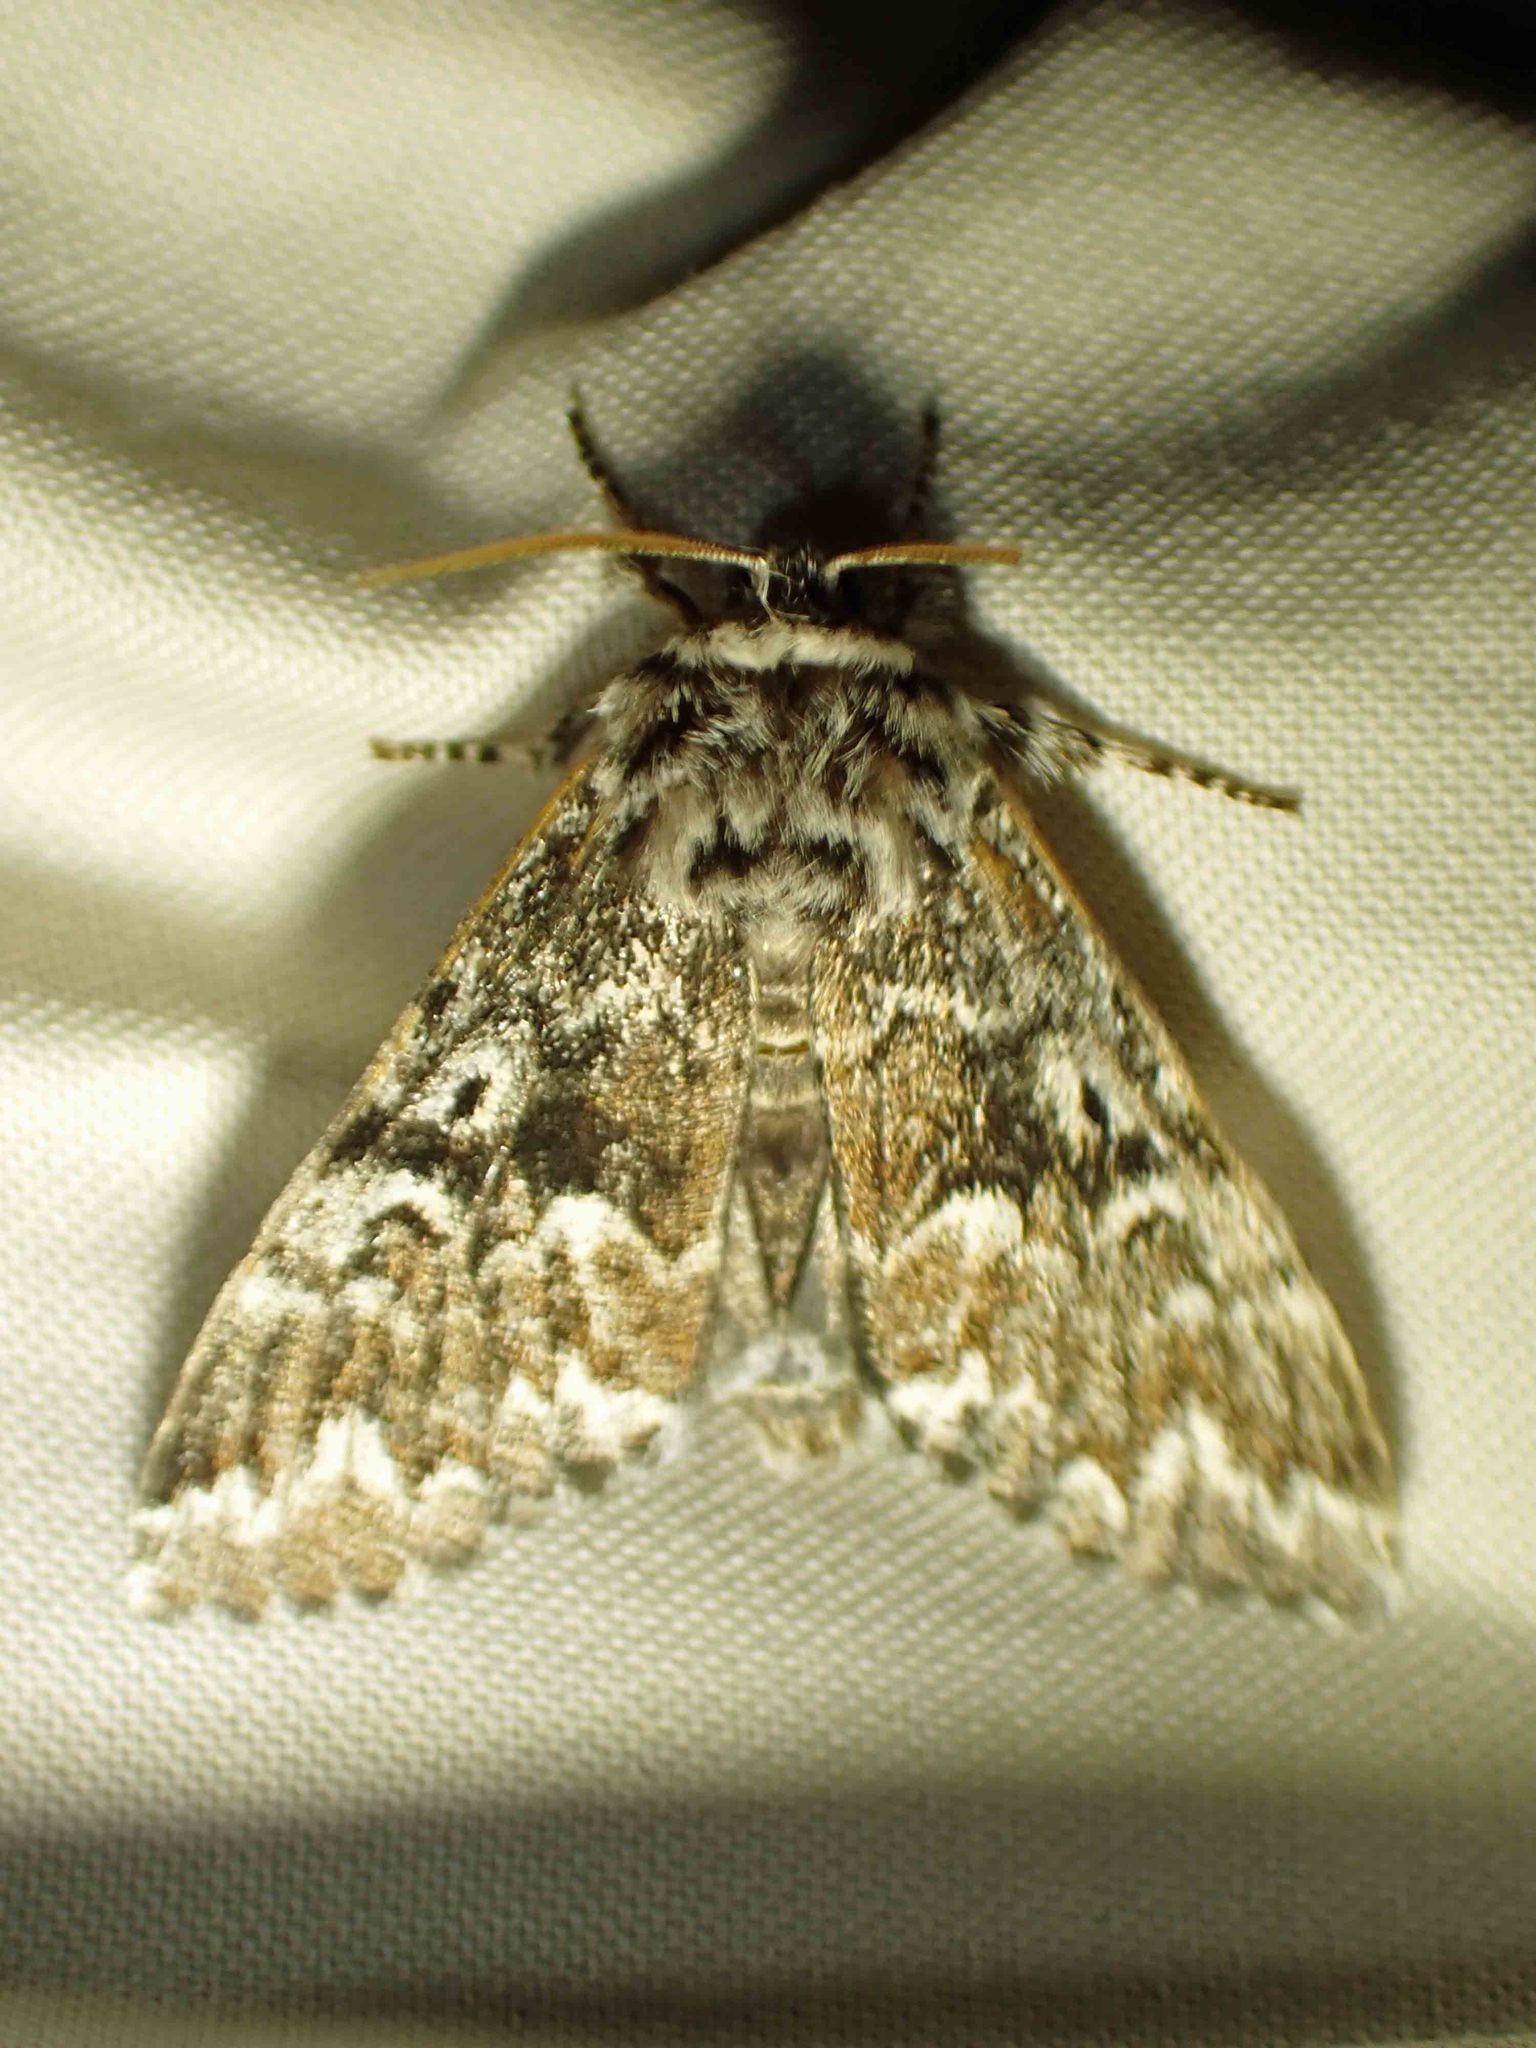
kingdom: Animalia
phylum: Arthropoda
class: Insecta
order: Lepidoptera
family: Noctuidae
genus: Panthea
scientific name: Panthea acronyctoides
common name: Black zigzag moth
